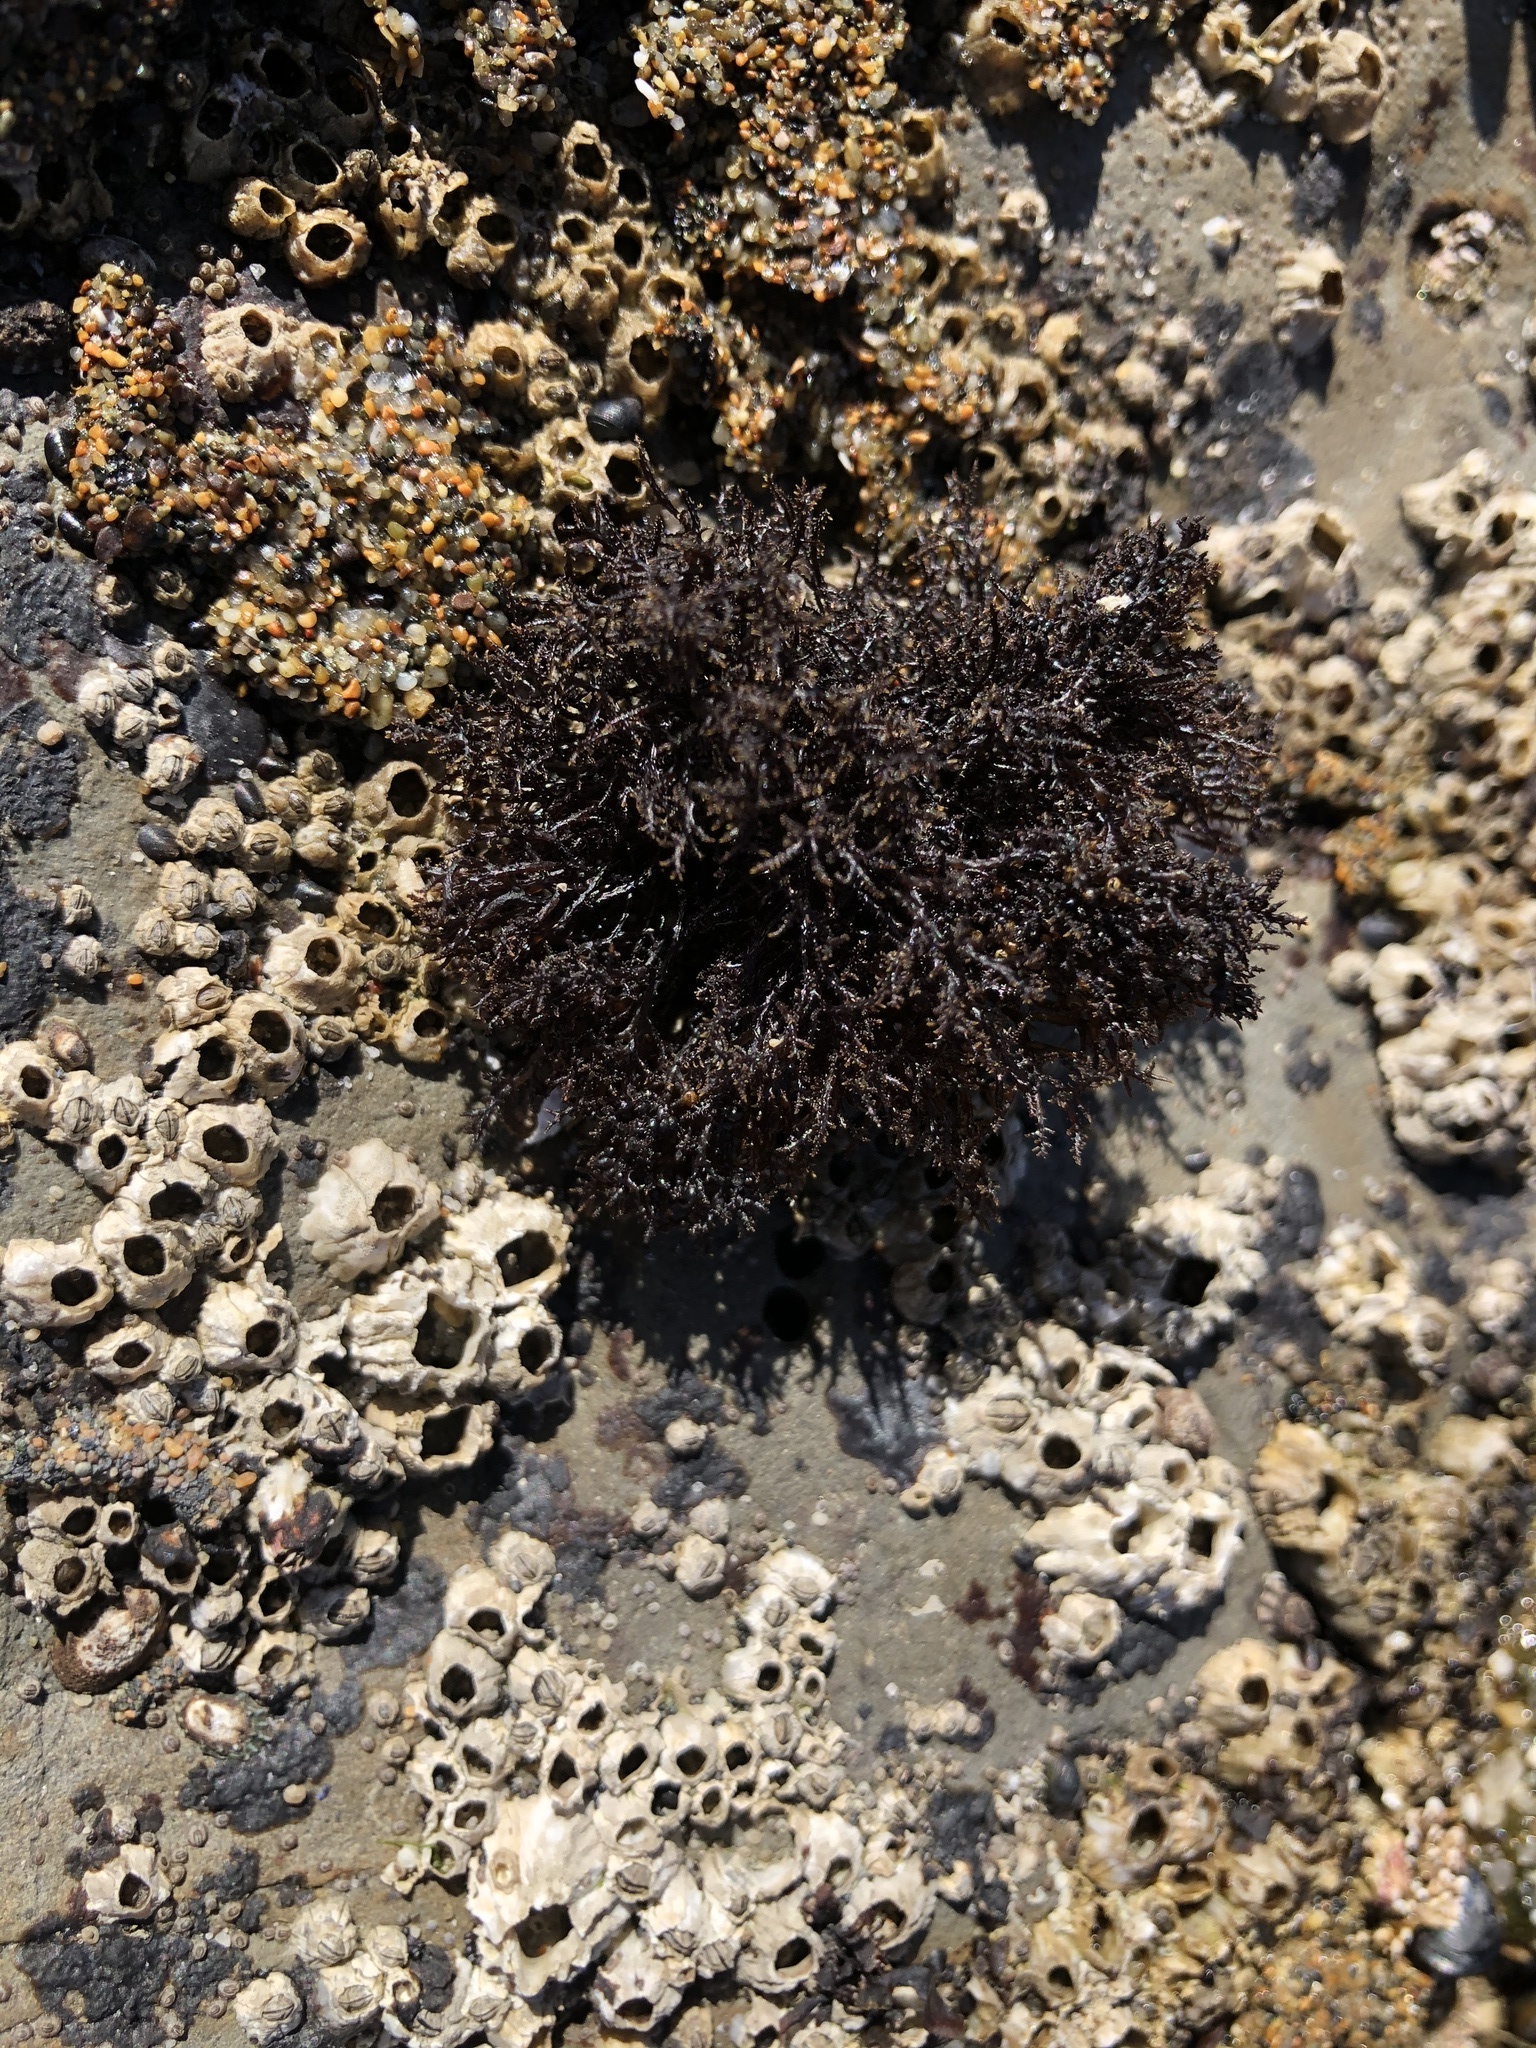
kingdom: Plantae
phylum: Rhodophyta
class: Florideophyceae
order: Gigartinales
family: Endocladiaceae
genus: Endocladia
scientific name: Endocladia muricata
